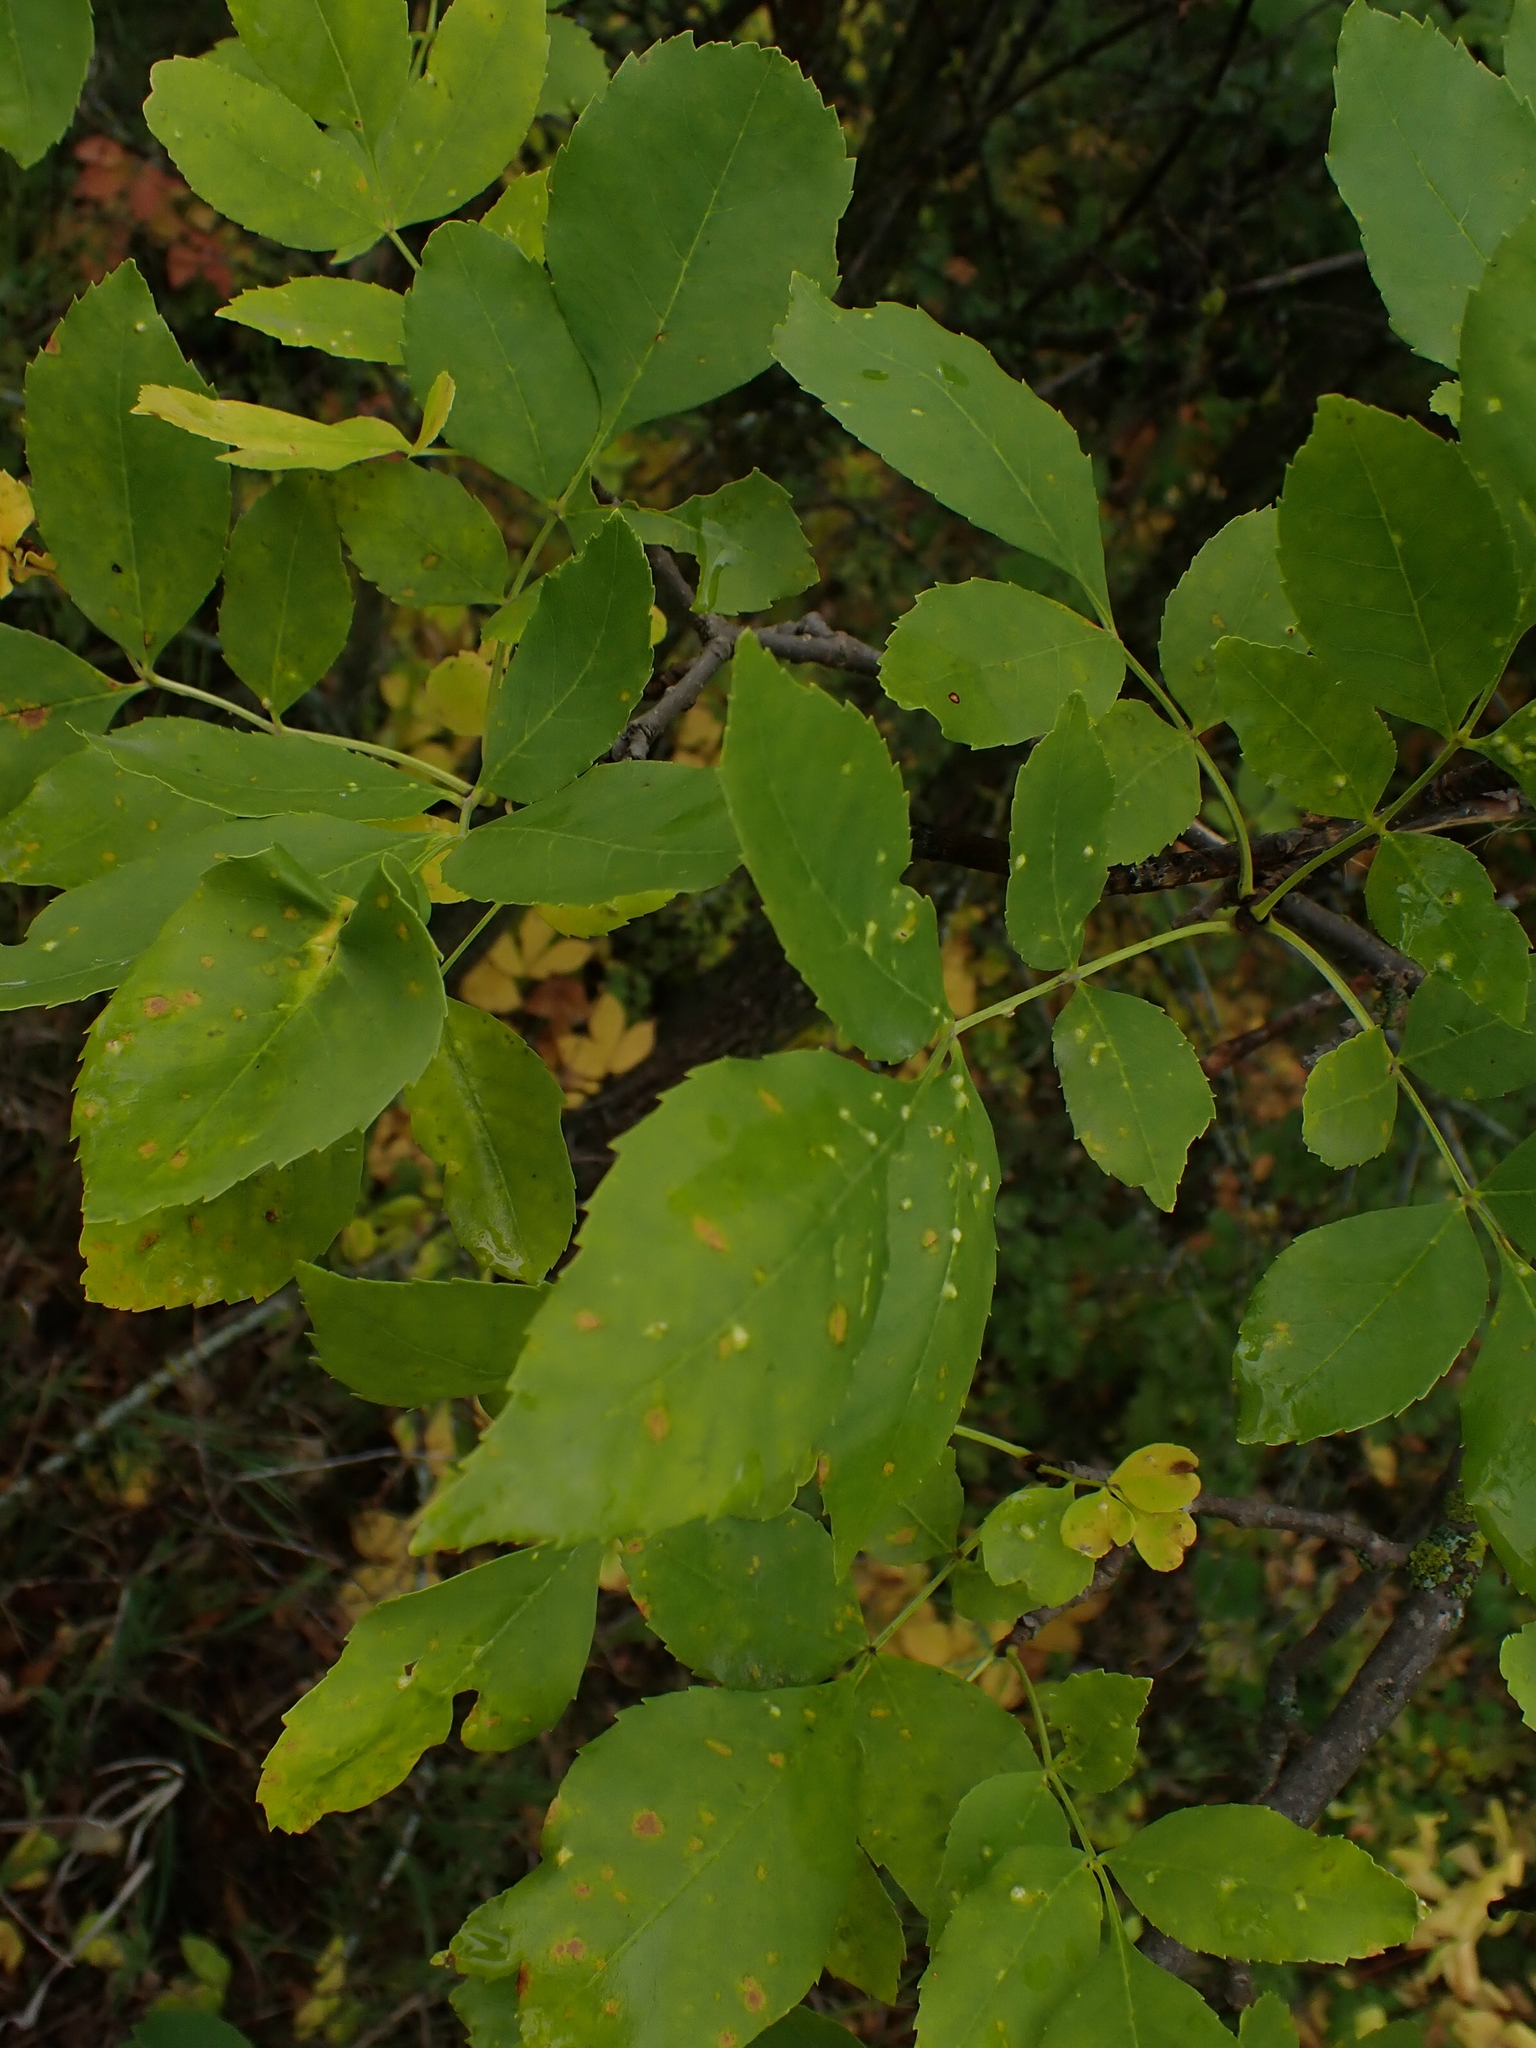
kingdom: Plantae
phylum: Tracheophyta
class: Magnoliopsida
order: Lamiales
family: Oleaceae
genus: Fraxinus
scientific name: Fraxinus pennsylvanica
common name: Green ash
